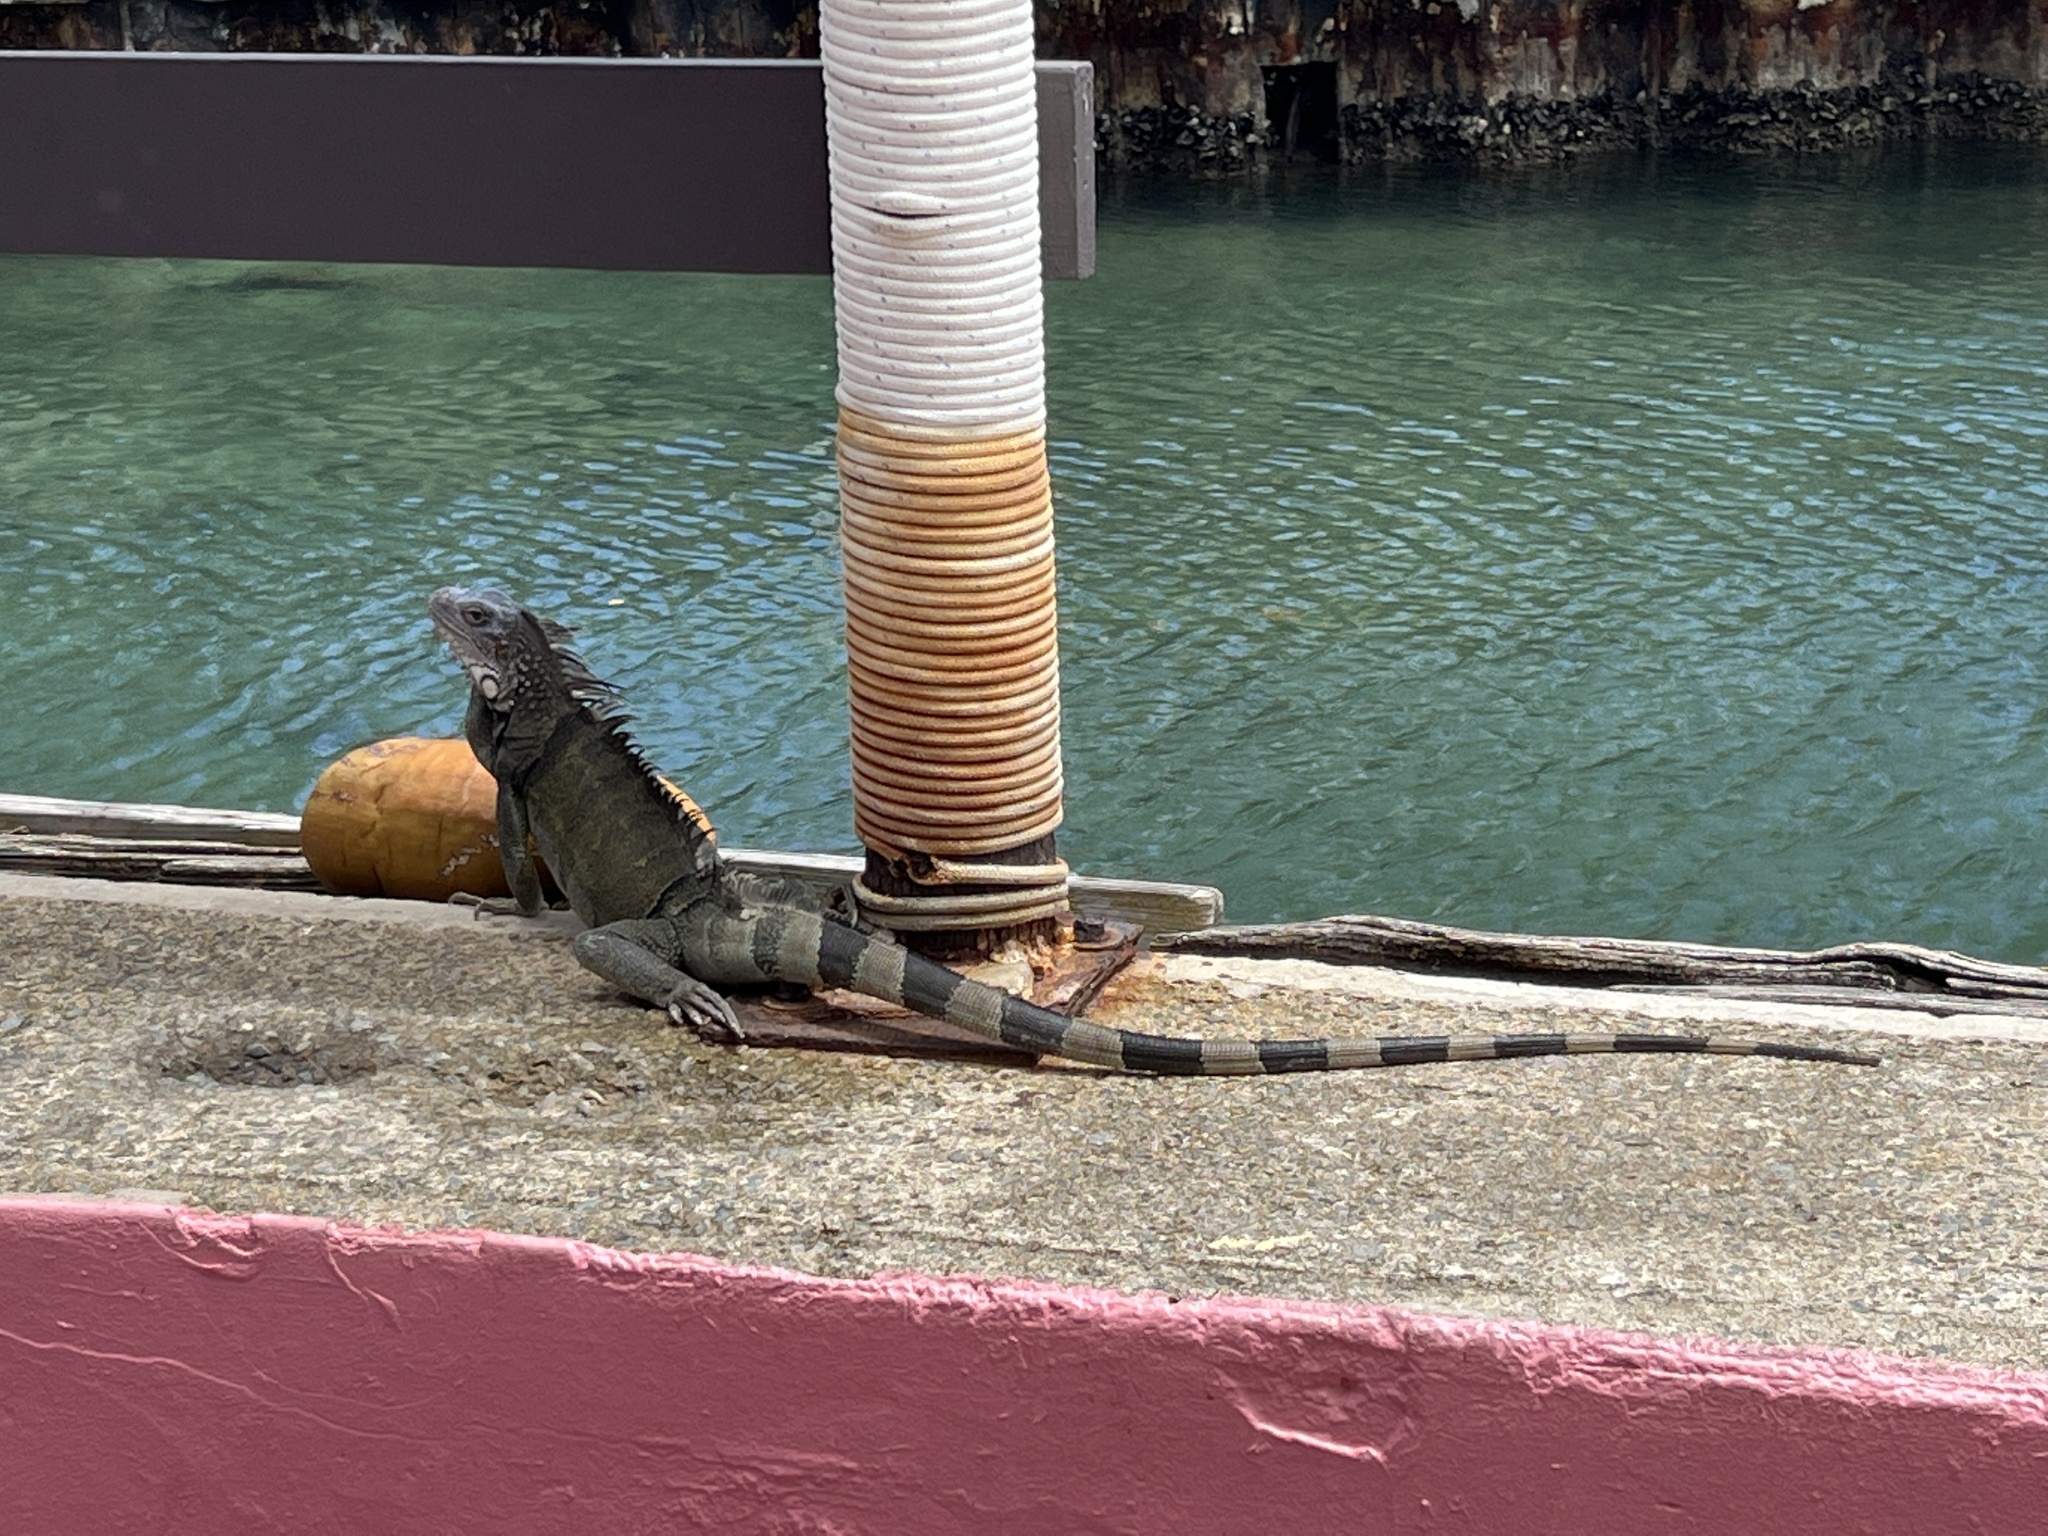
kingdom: Animalia
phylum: Chordata
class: Squamata
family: Iguanidae
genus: Iguana
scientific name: Iguana iguana
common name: Green iguana
